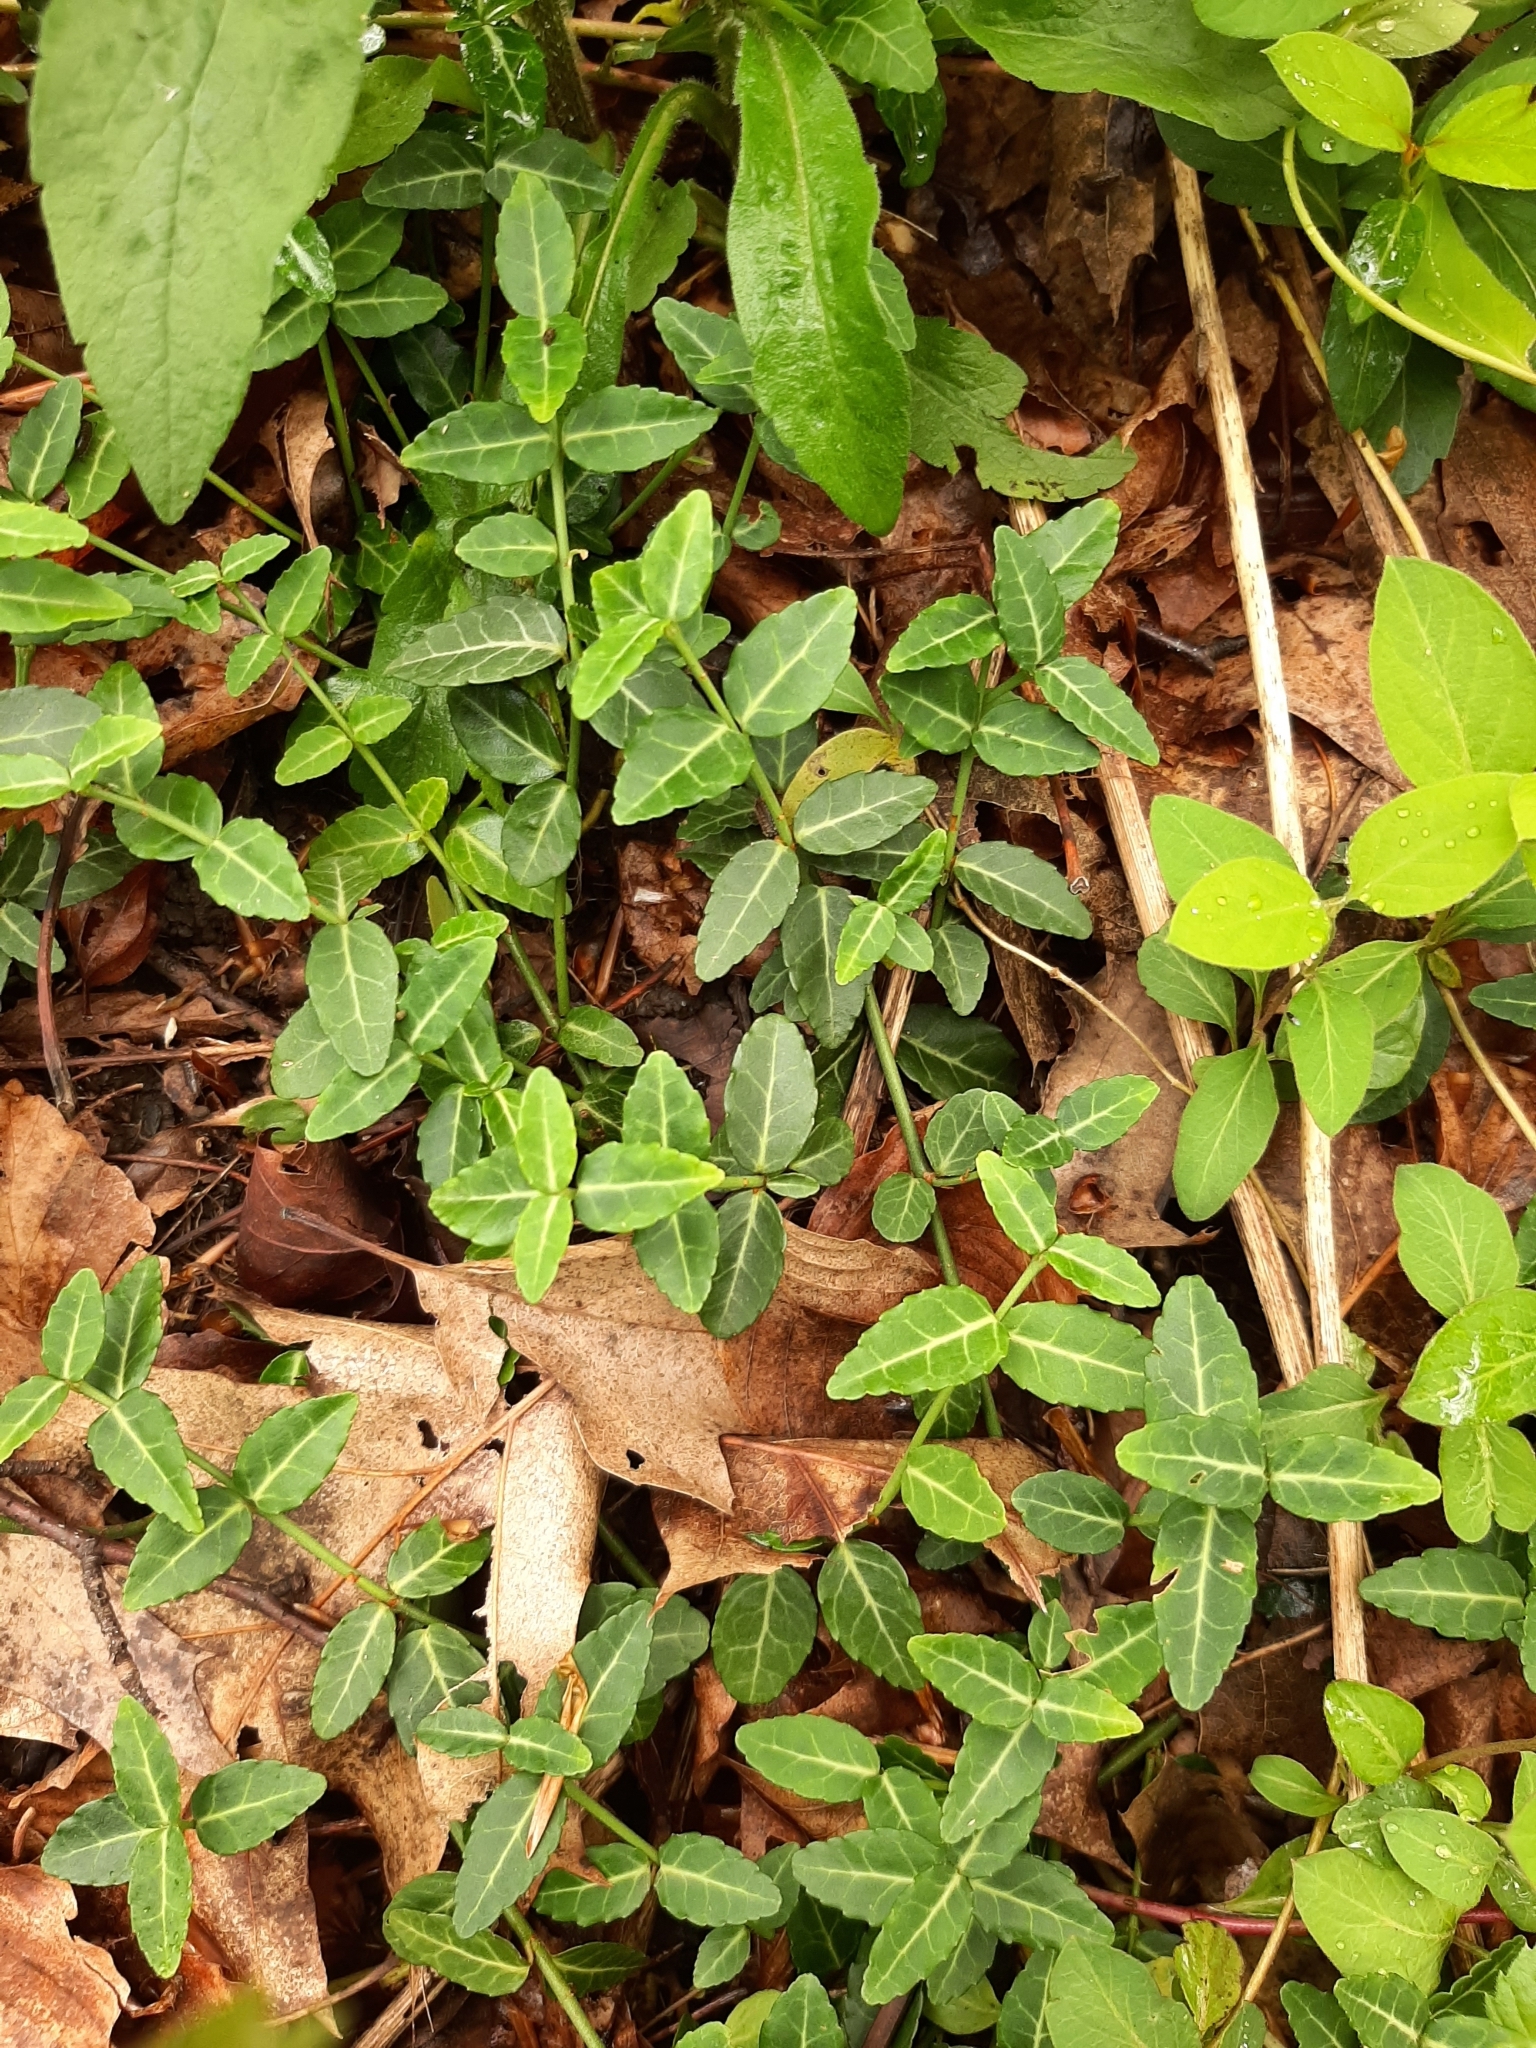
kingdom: Plantae
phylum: Tracheophyta
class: Magnoliopsida
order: Celastrales
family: Celastraceae
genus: Euonymus
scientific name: Euonymus fortunei
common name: Climbing euonymus
